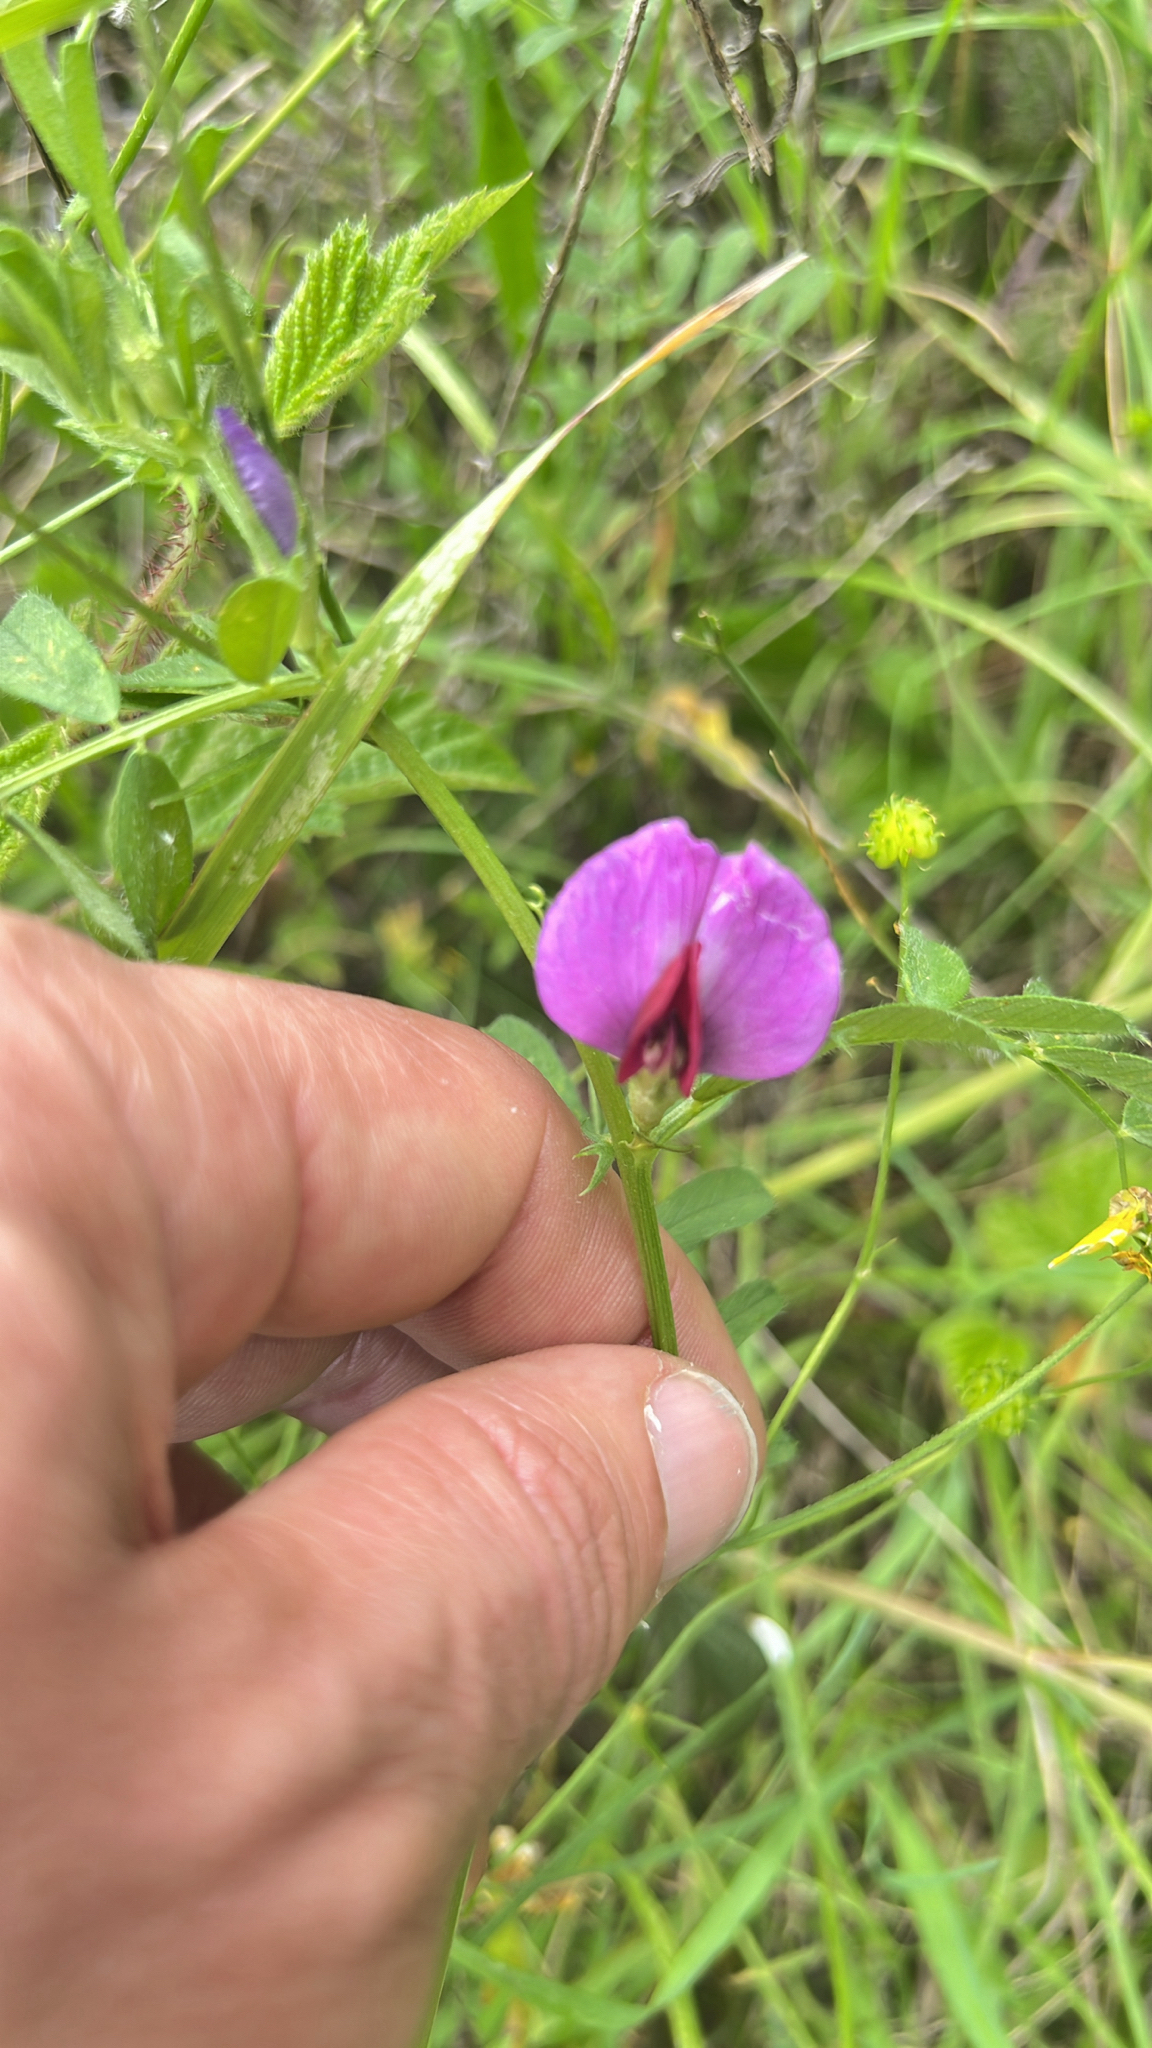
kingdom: Plantae
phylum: Tracheophyta
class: Magnoliopsida
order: Fabales
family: Fabaceae
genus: Vicia
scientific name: Vicia sativa
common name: Garden vetch
